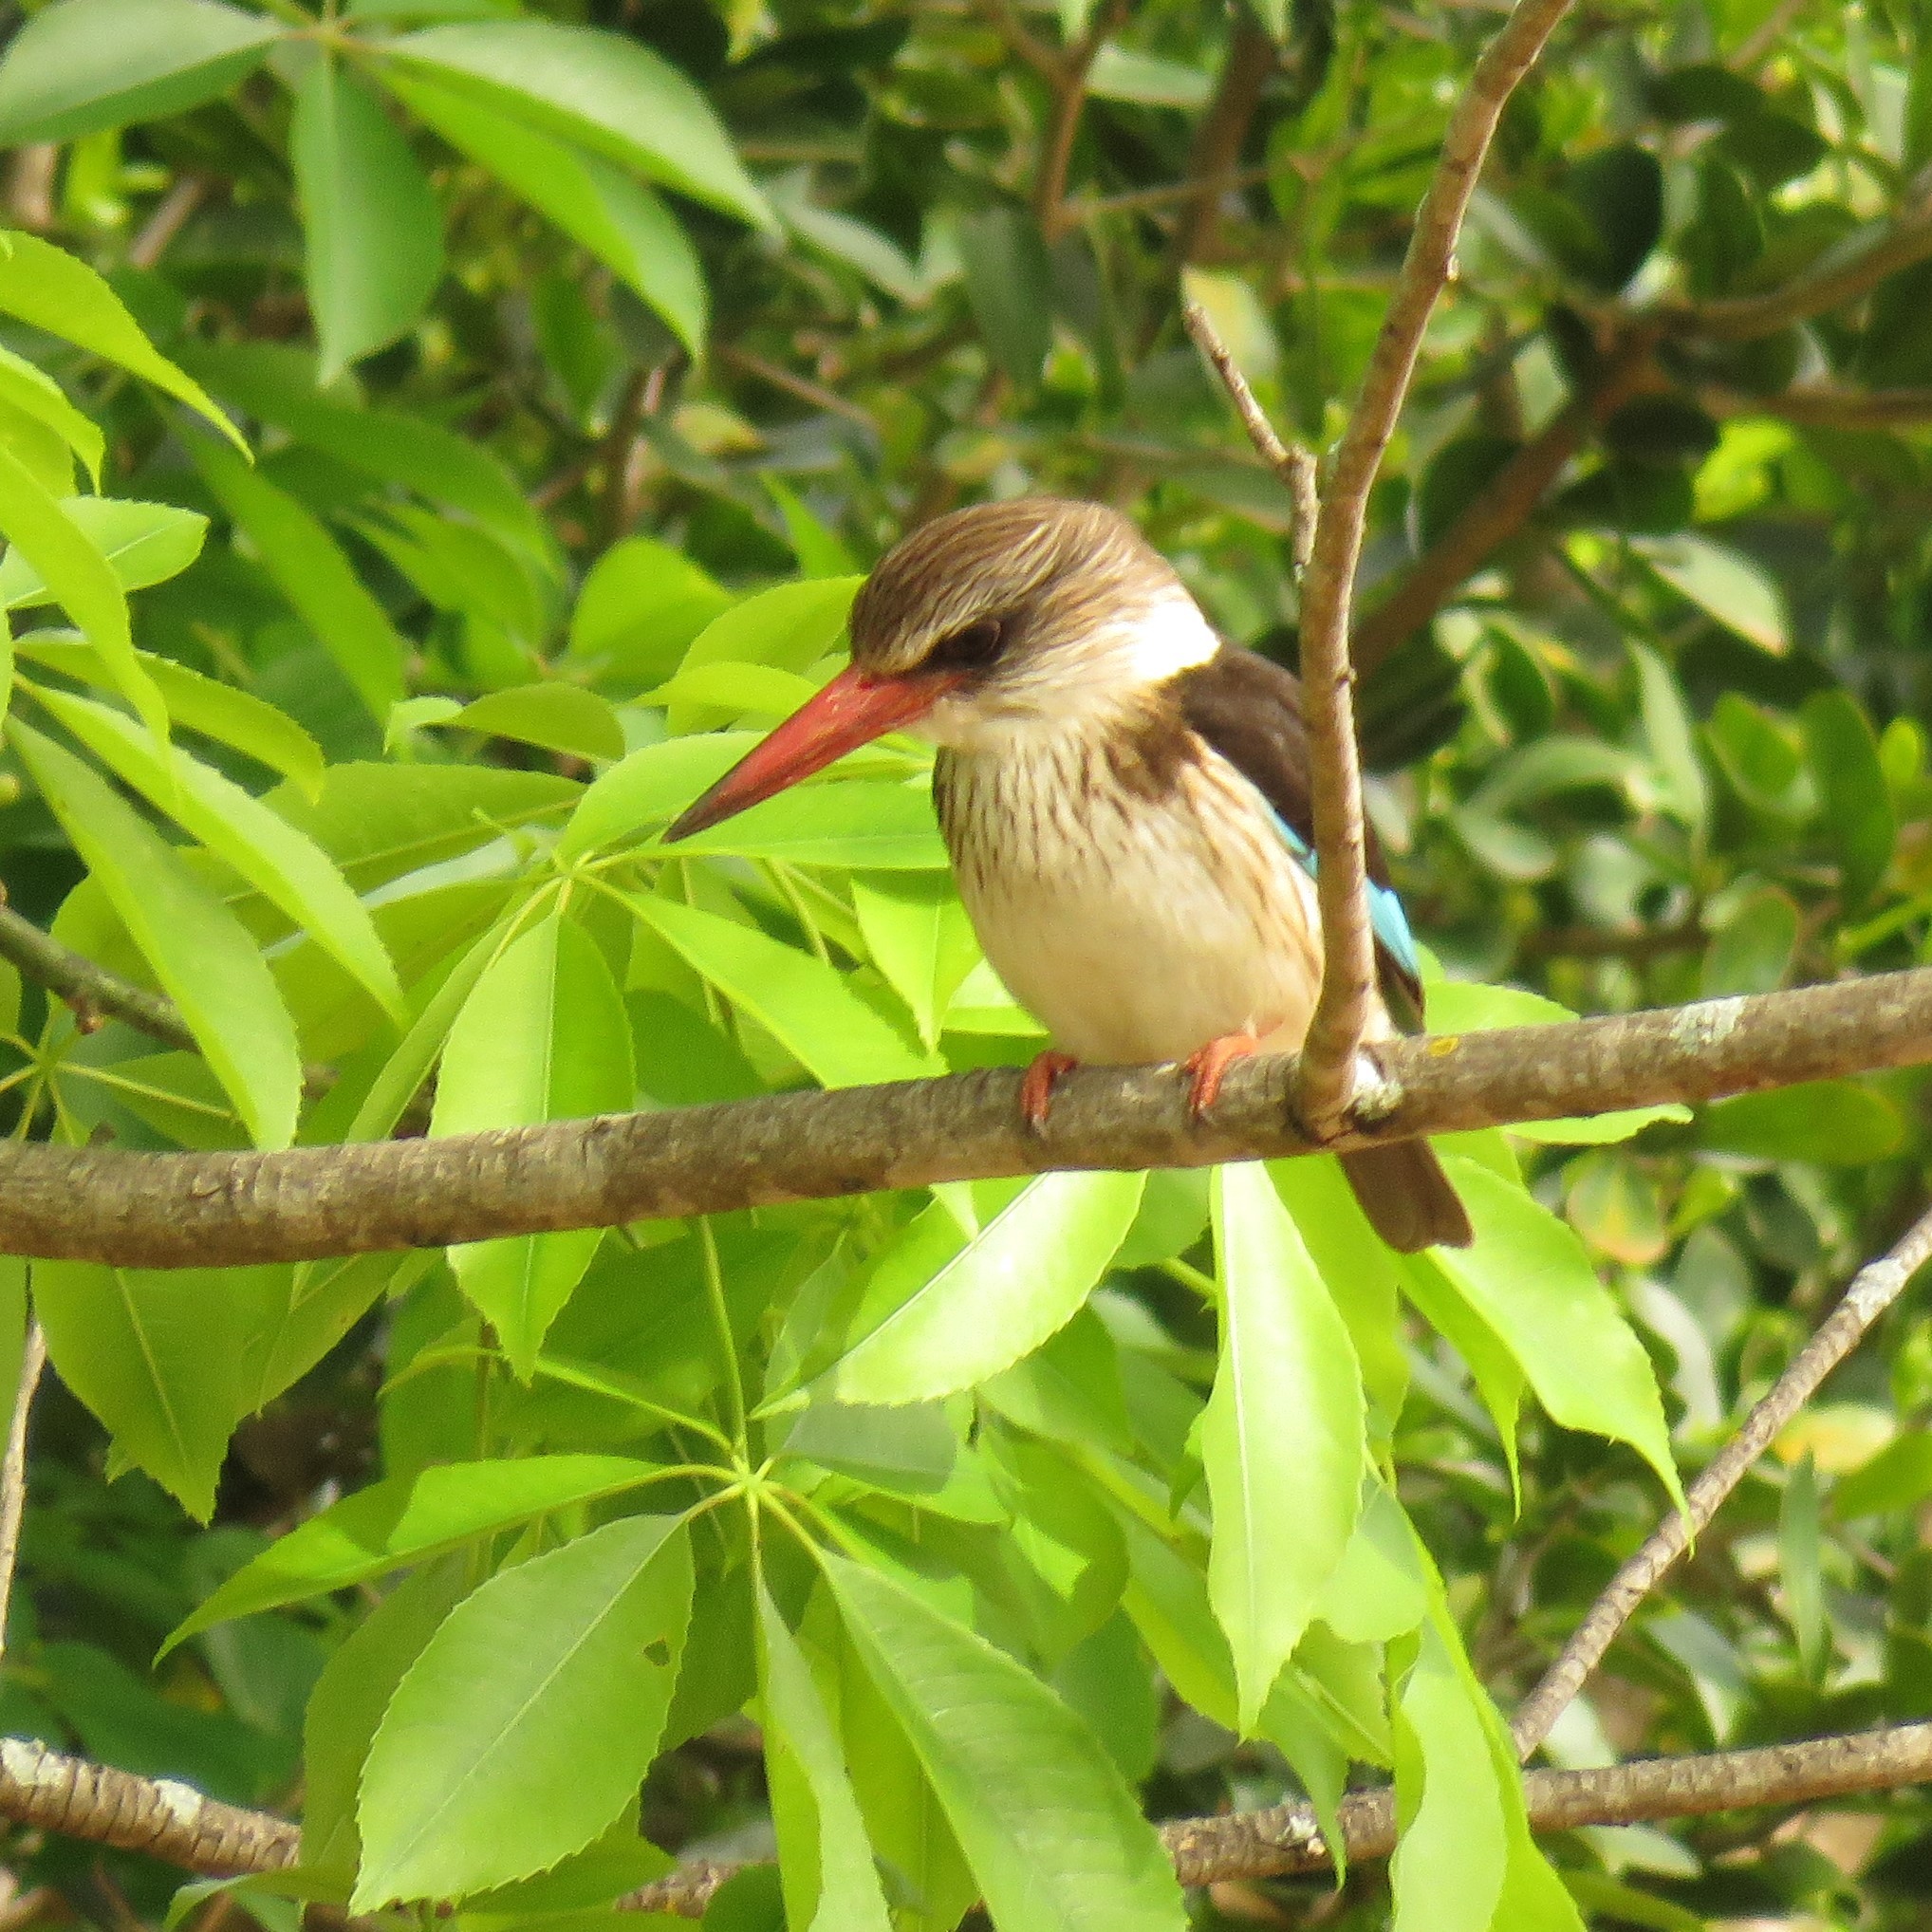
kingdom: Animalia
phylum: Chordata
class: Aves
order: Coraciiformes
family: Alcedinidae
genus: Halcyon
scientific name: Halcyon albiventris
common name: Brown-hooded kingfisher
